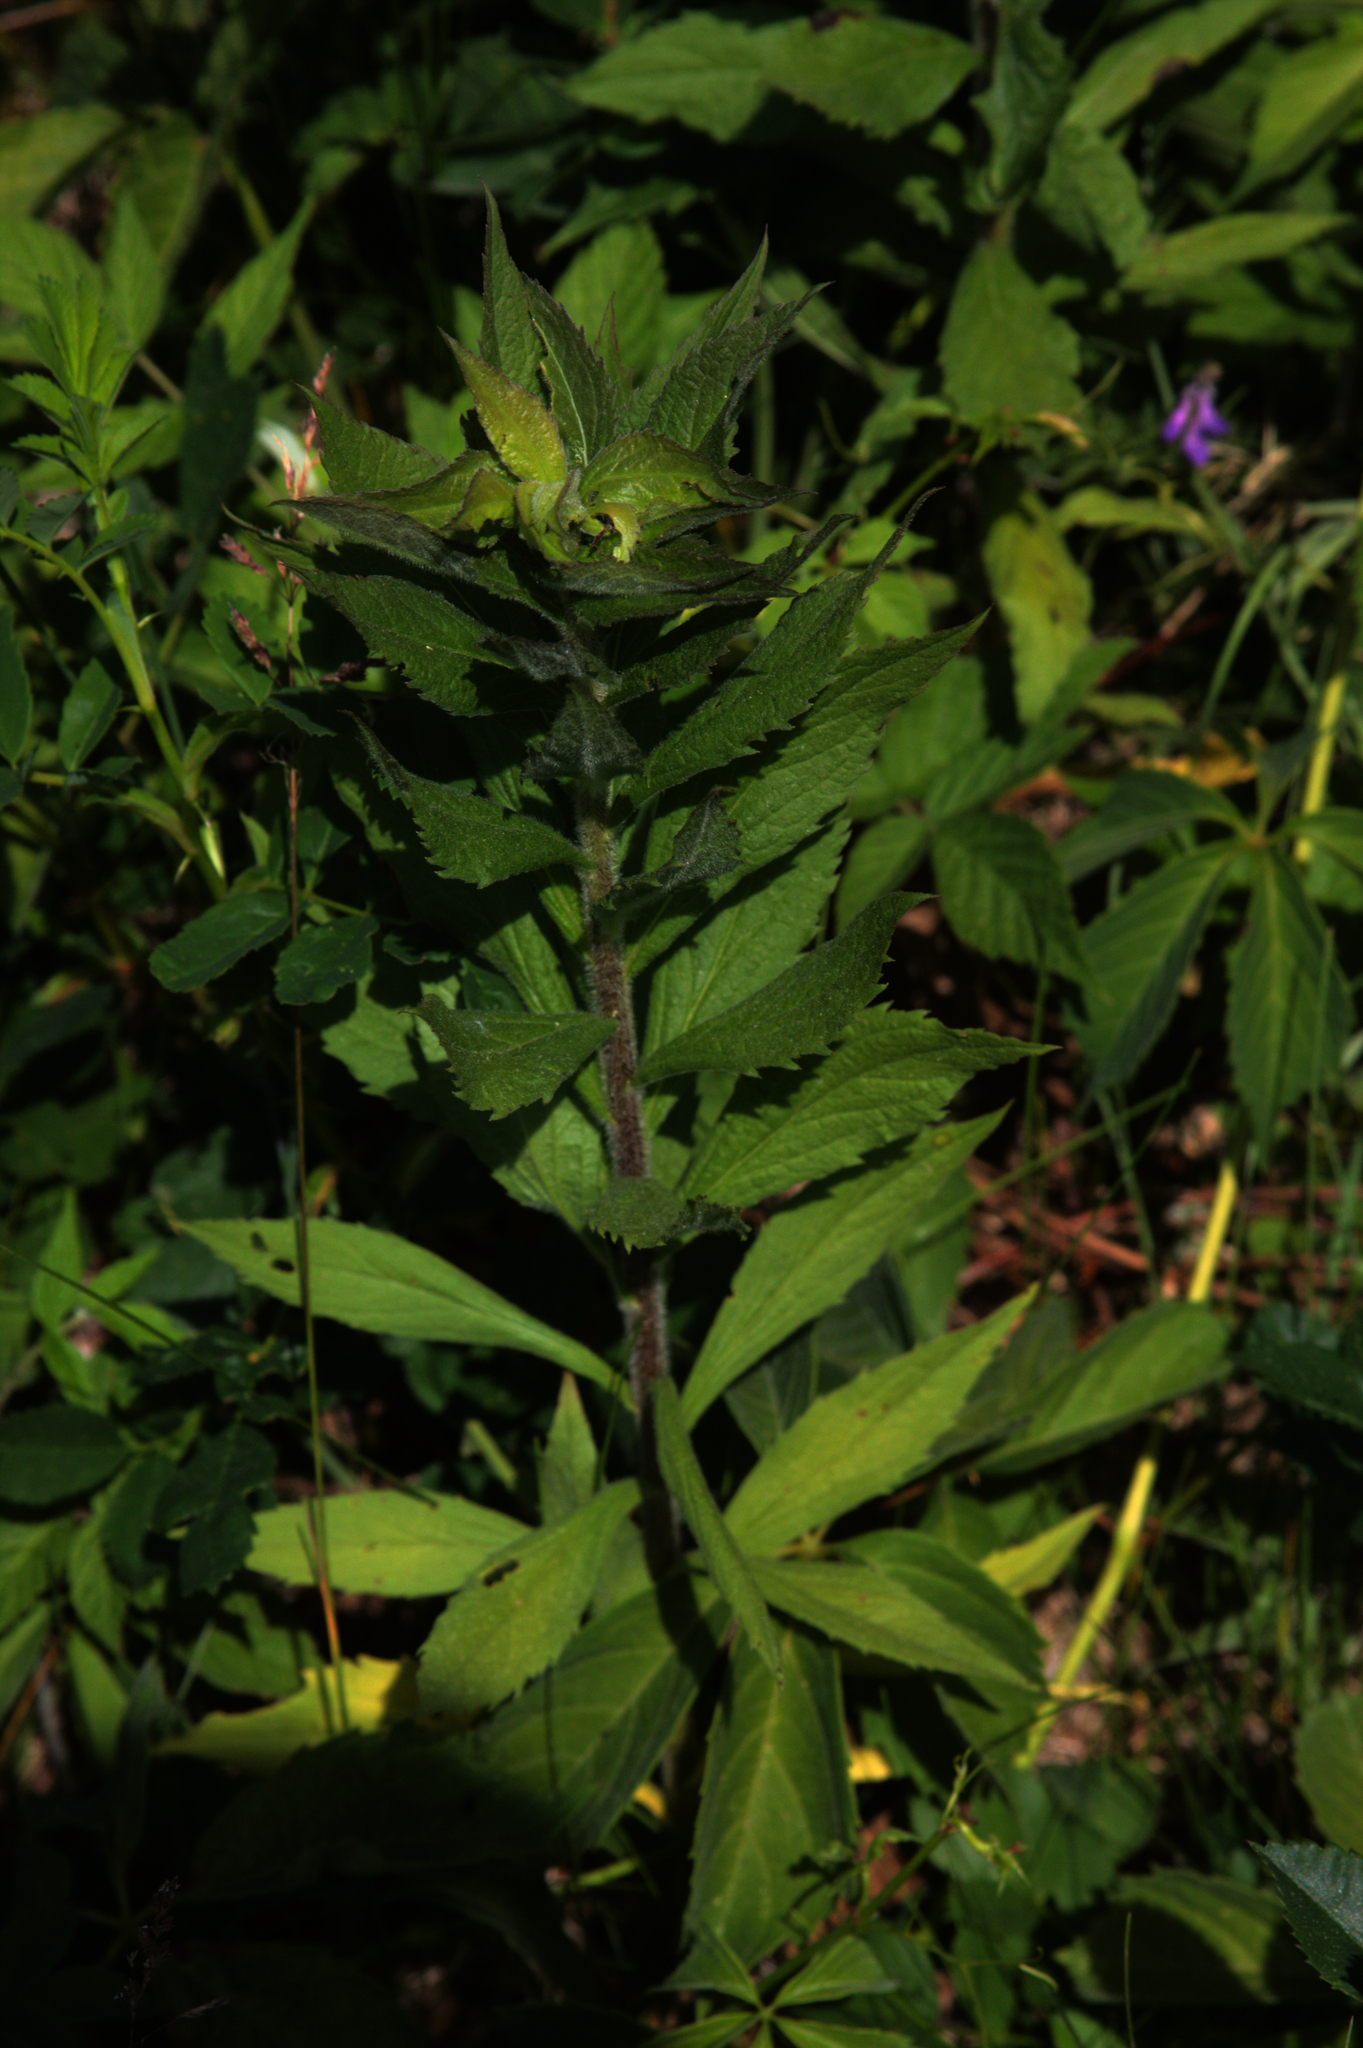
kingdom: Plantae
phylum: Tracheophyta
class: Magnoliopsida
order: Asterales
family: Asteraceae
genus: Solidago
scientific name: Solidago rugosa
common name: Rough-stemmed goldenrod
